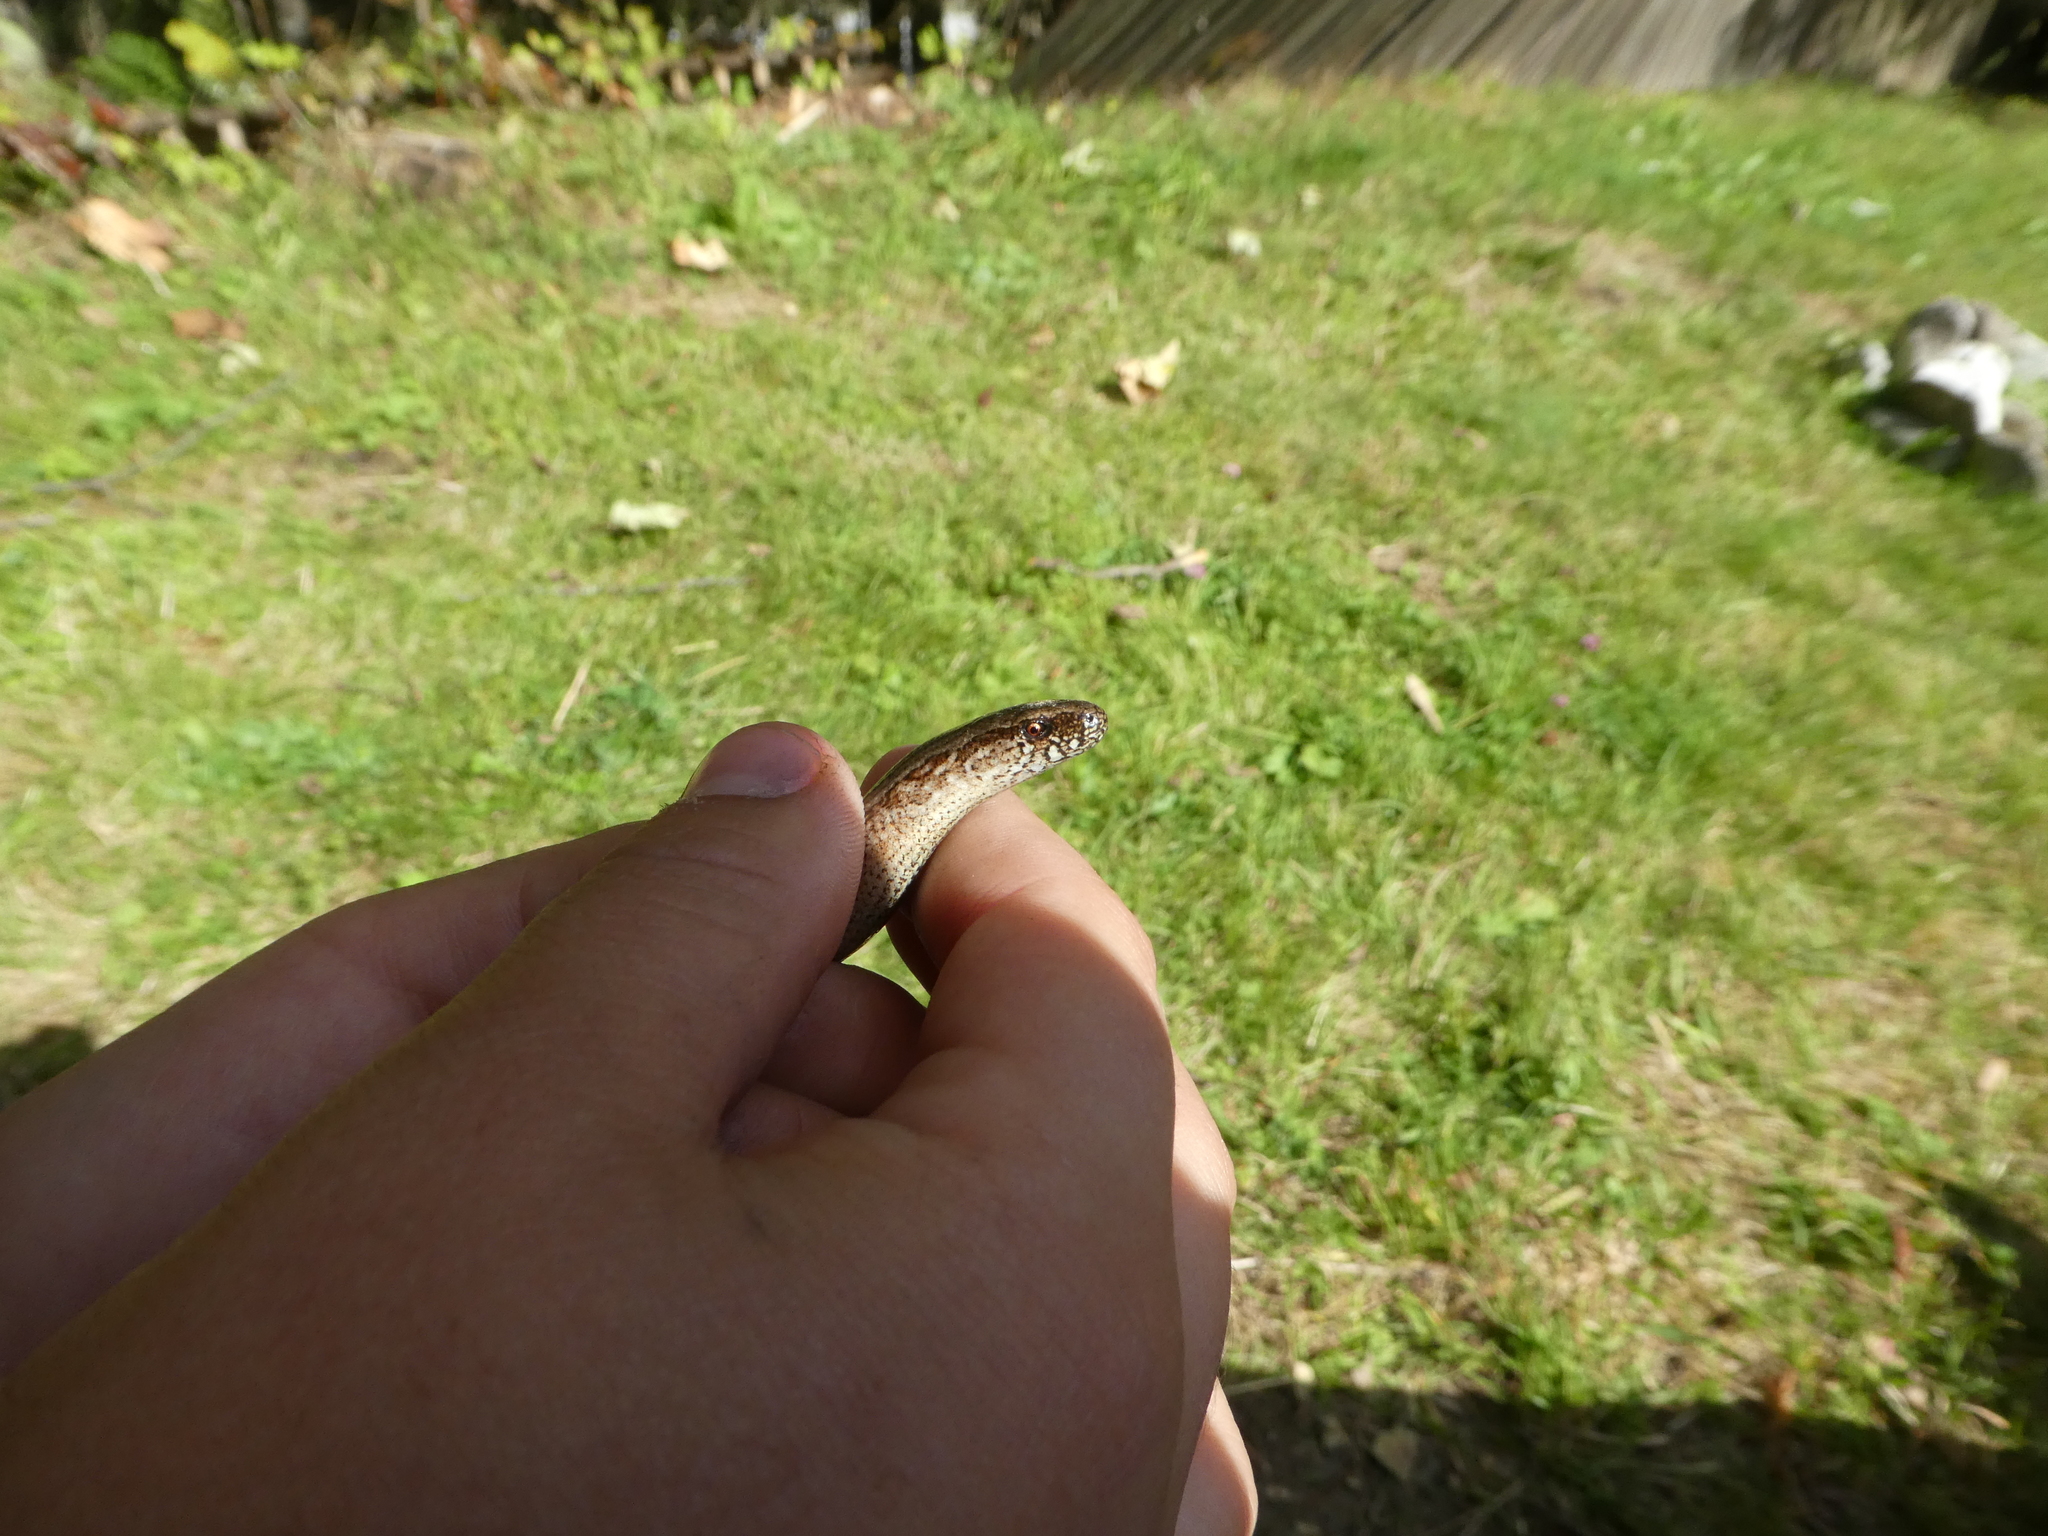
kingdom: Animalia
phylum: Chordata
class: Squamata
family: Anguidae
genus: Anguis
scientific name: Anguis fragilis
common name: Slow worm
